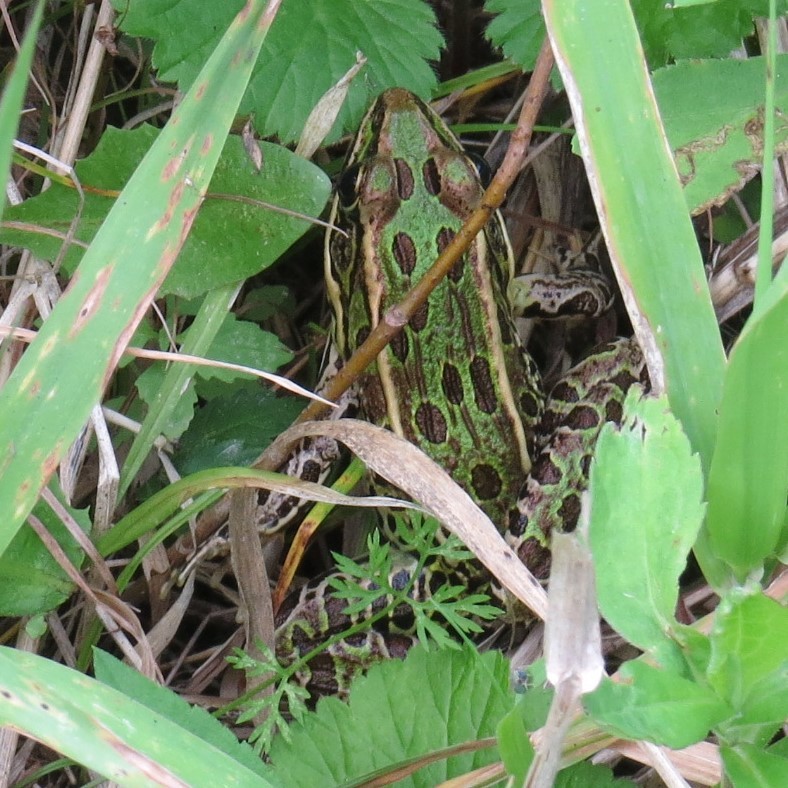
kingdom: Animalia
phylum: Chordata
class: Amphibia
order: Anura
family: Ranidae
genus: Lithobates
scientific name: Lithobates pipiens
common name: Northern leopard frog
